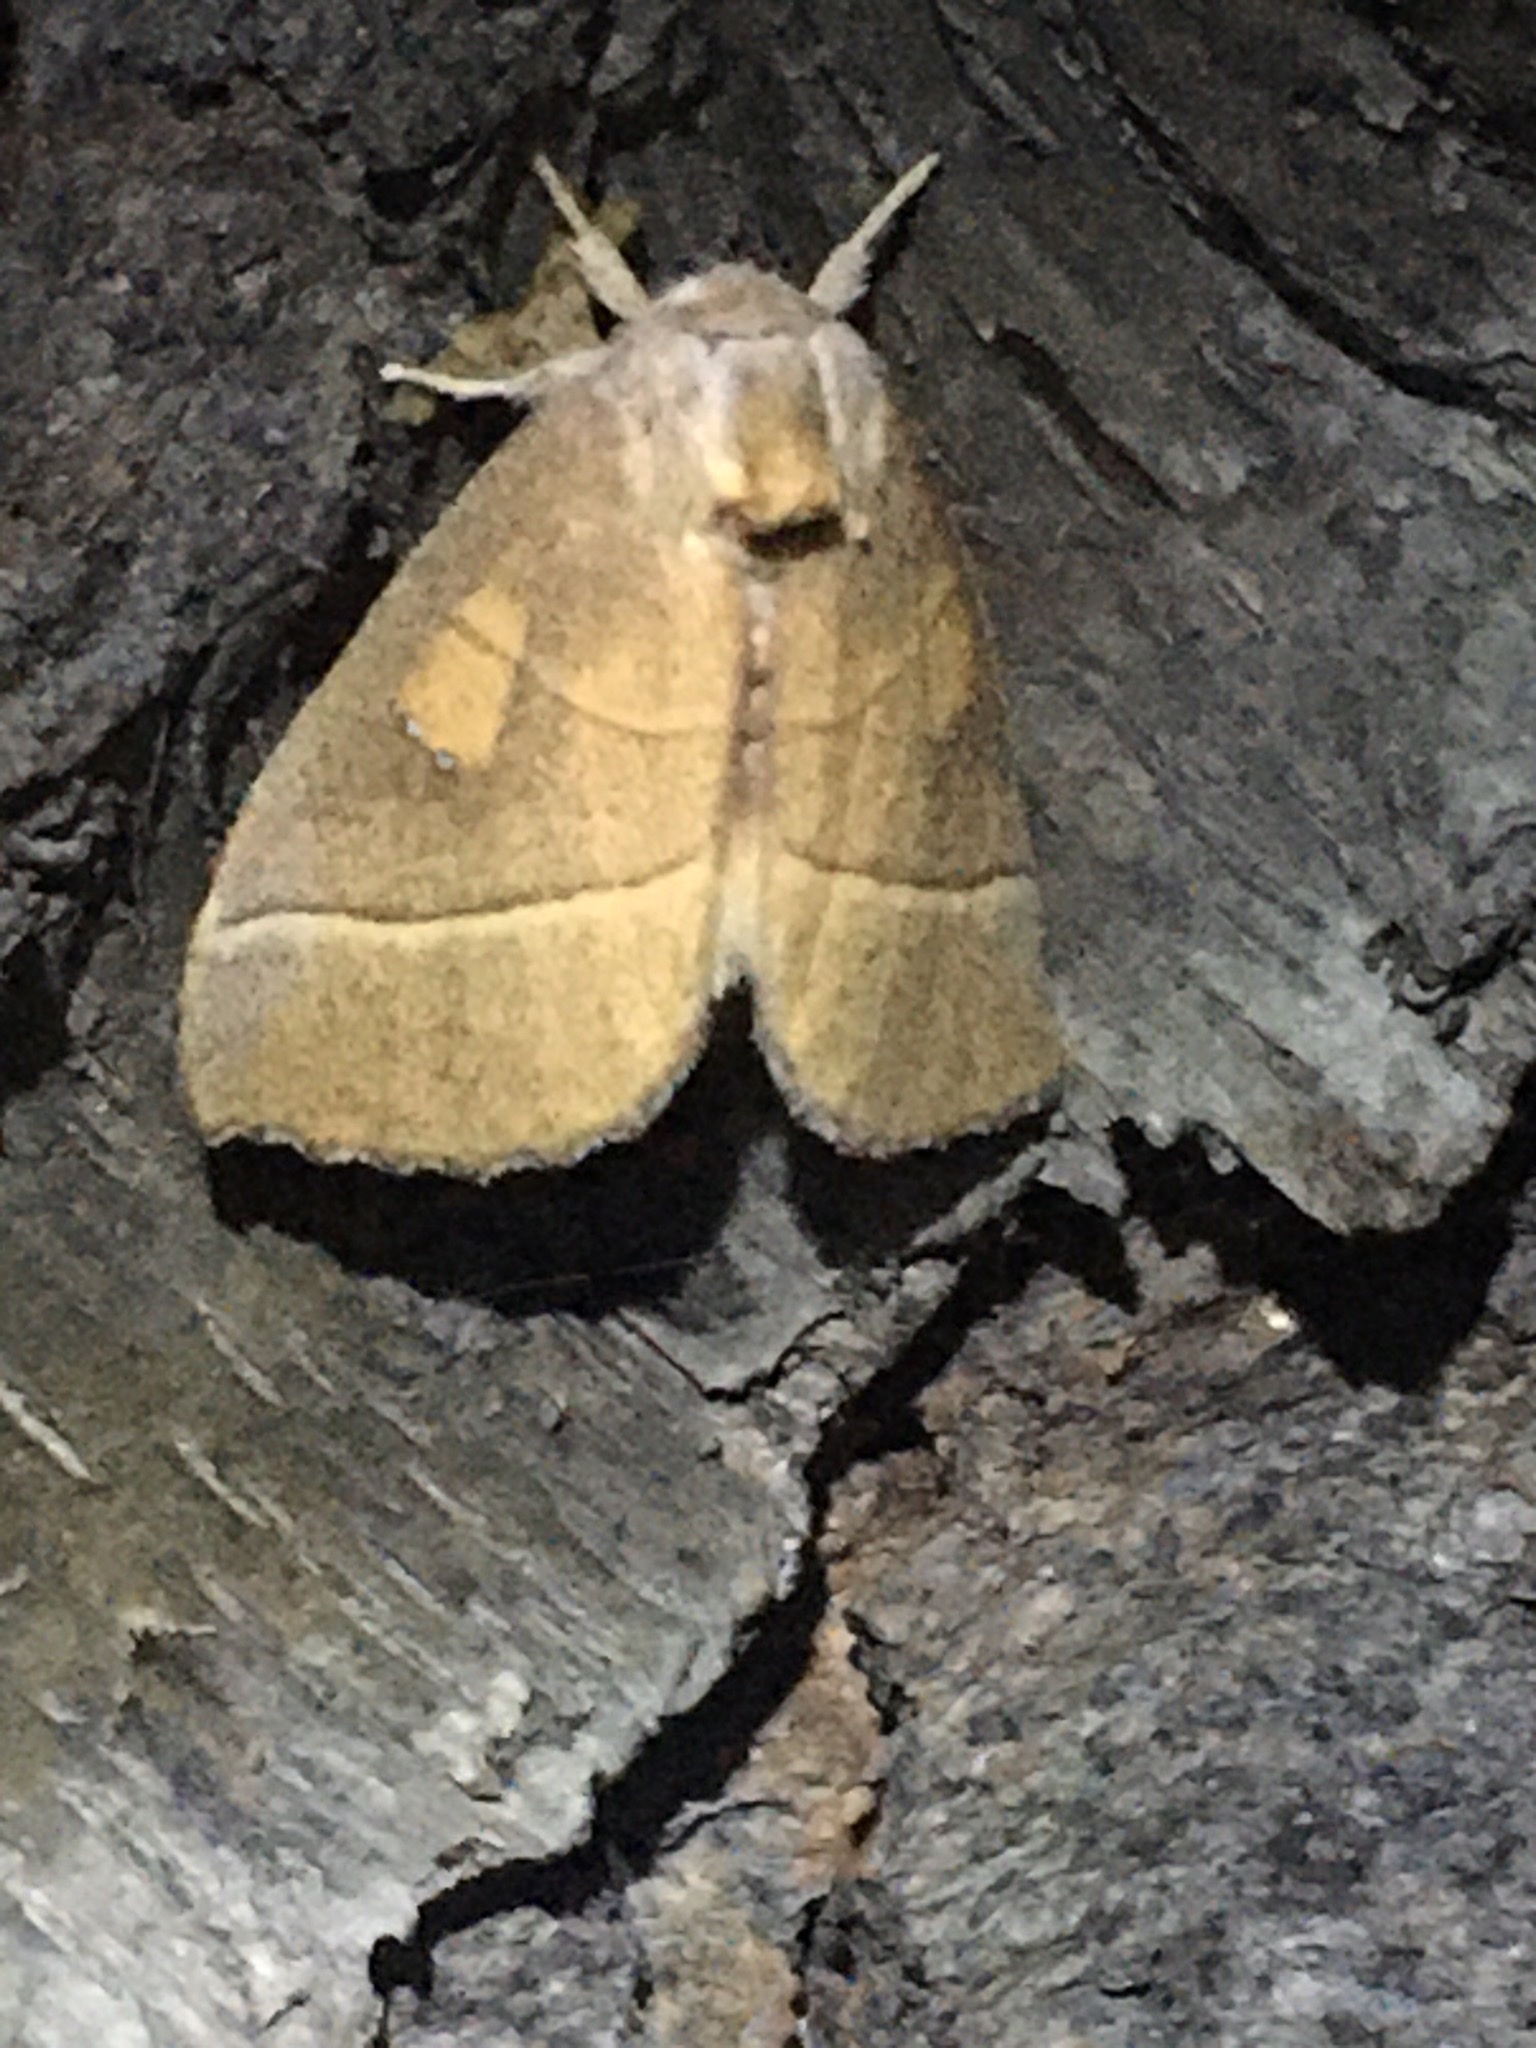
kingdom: Animalia
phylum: Arthropoda
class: Insecta
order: Lepidoptera
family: Notodontidae
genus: Nadata
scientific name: Nadata gibbosa
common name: White-dotted prominent
